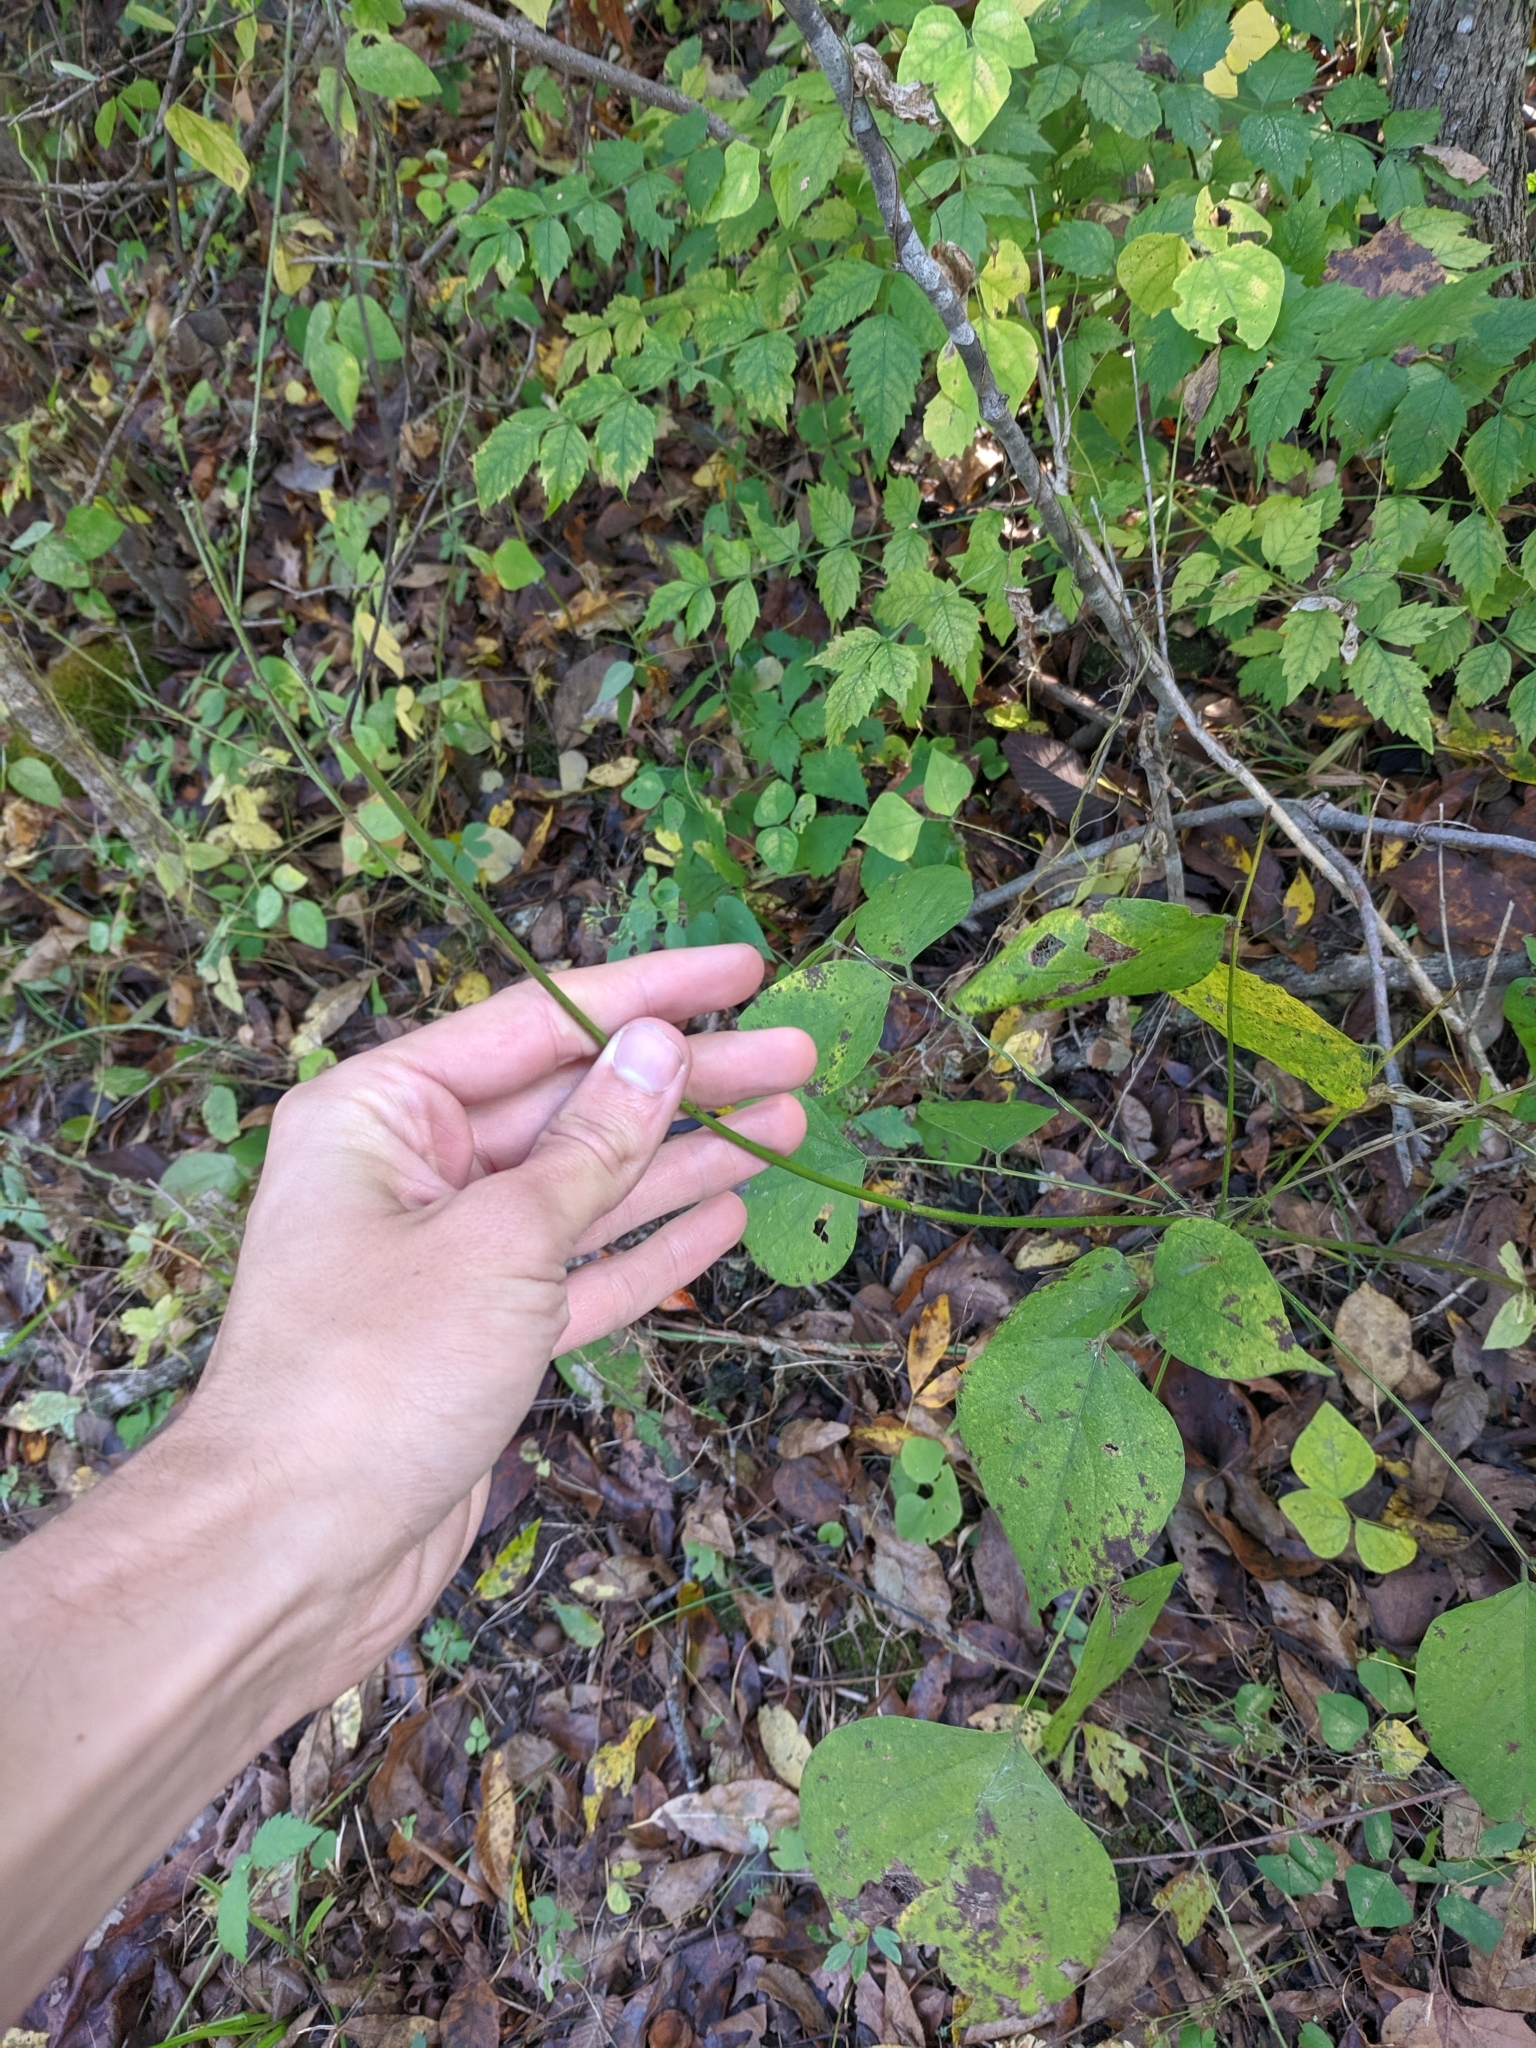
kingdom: Plantae
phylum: Tracheophyta
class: Magnoliopsida
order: Fabales
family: Fabaceae
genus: Hylodesmum
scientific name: Hylodesmum glutinosum
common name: Clustered-leaved tick-trefoil
